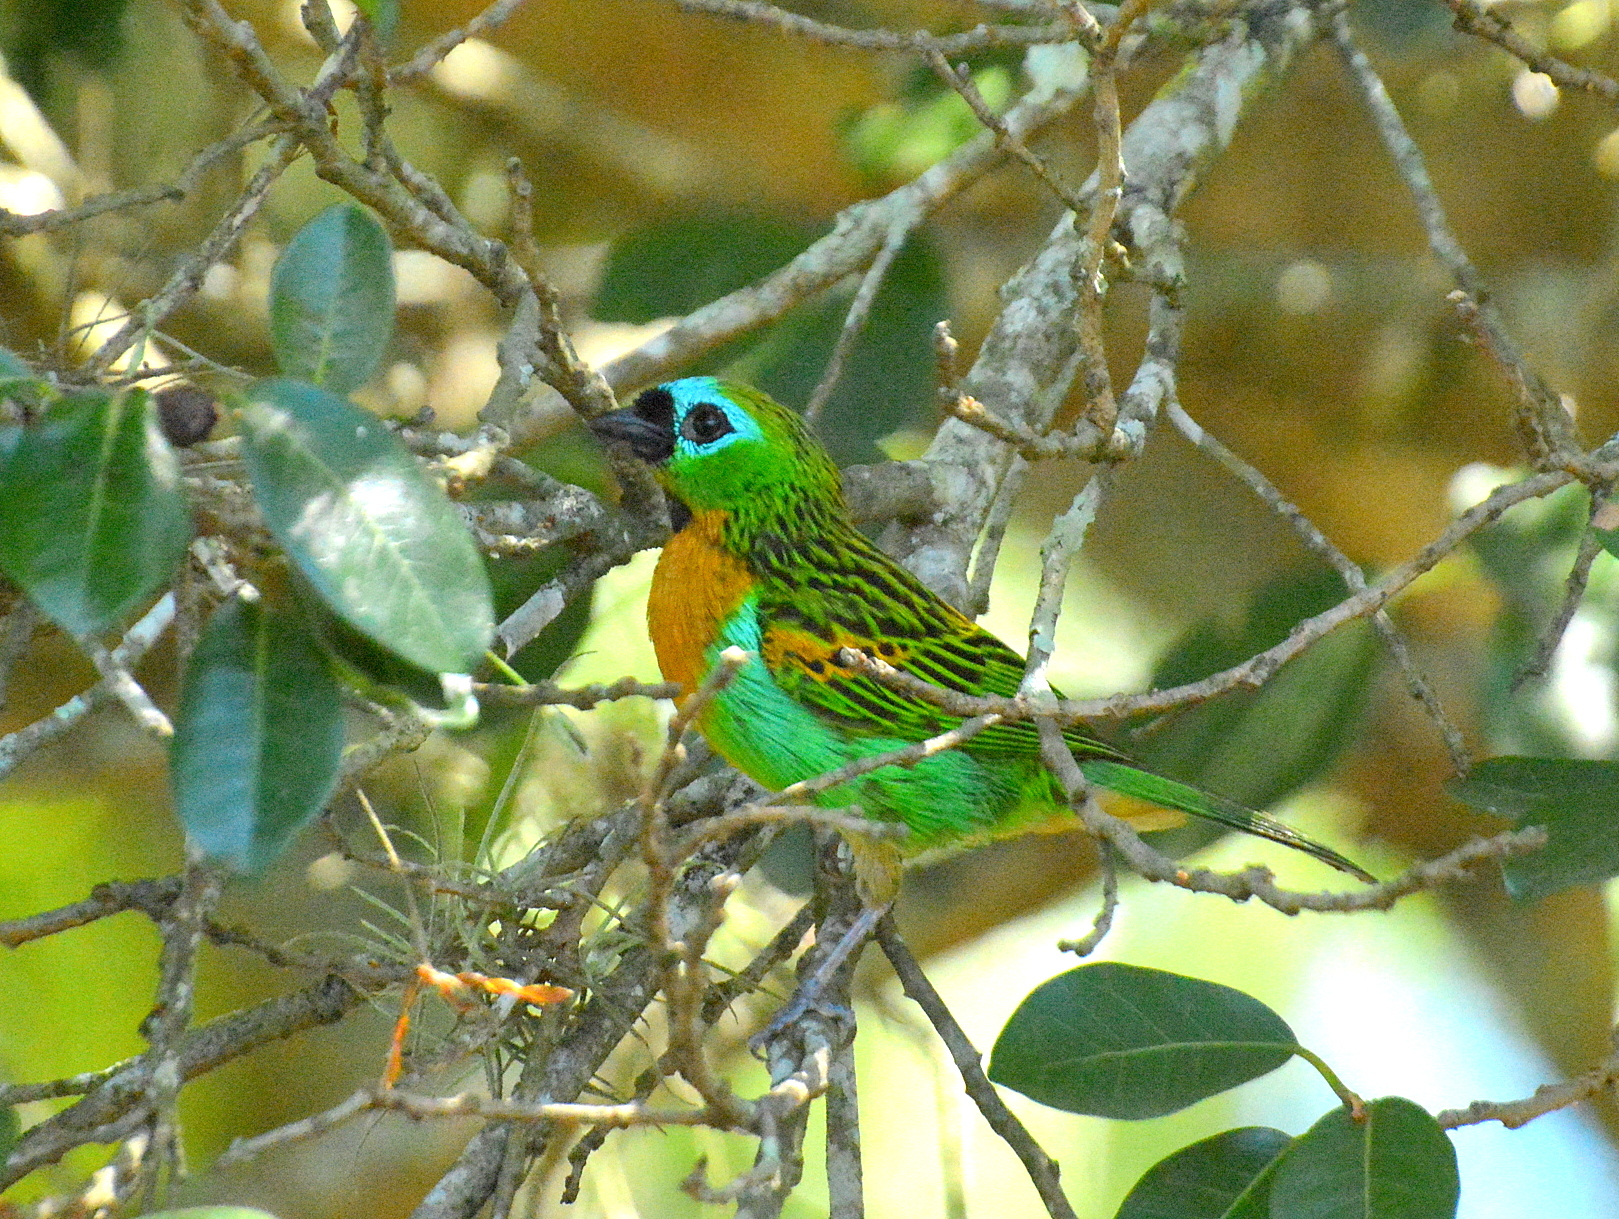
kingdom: Animalia
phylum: Chordata
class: Aves
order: Passeriformes
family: Thraupidae
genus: Tangara
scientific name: Tangara desmaresti
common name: Brassy-breasted tanager
